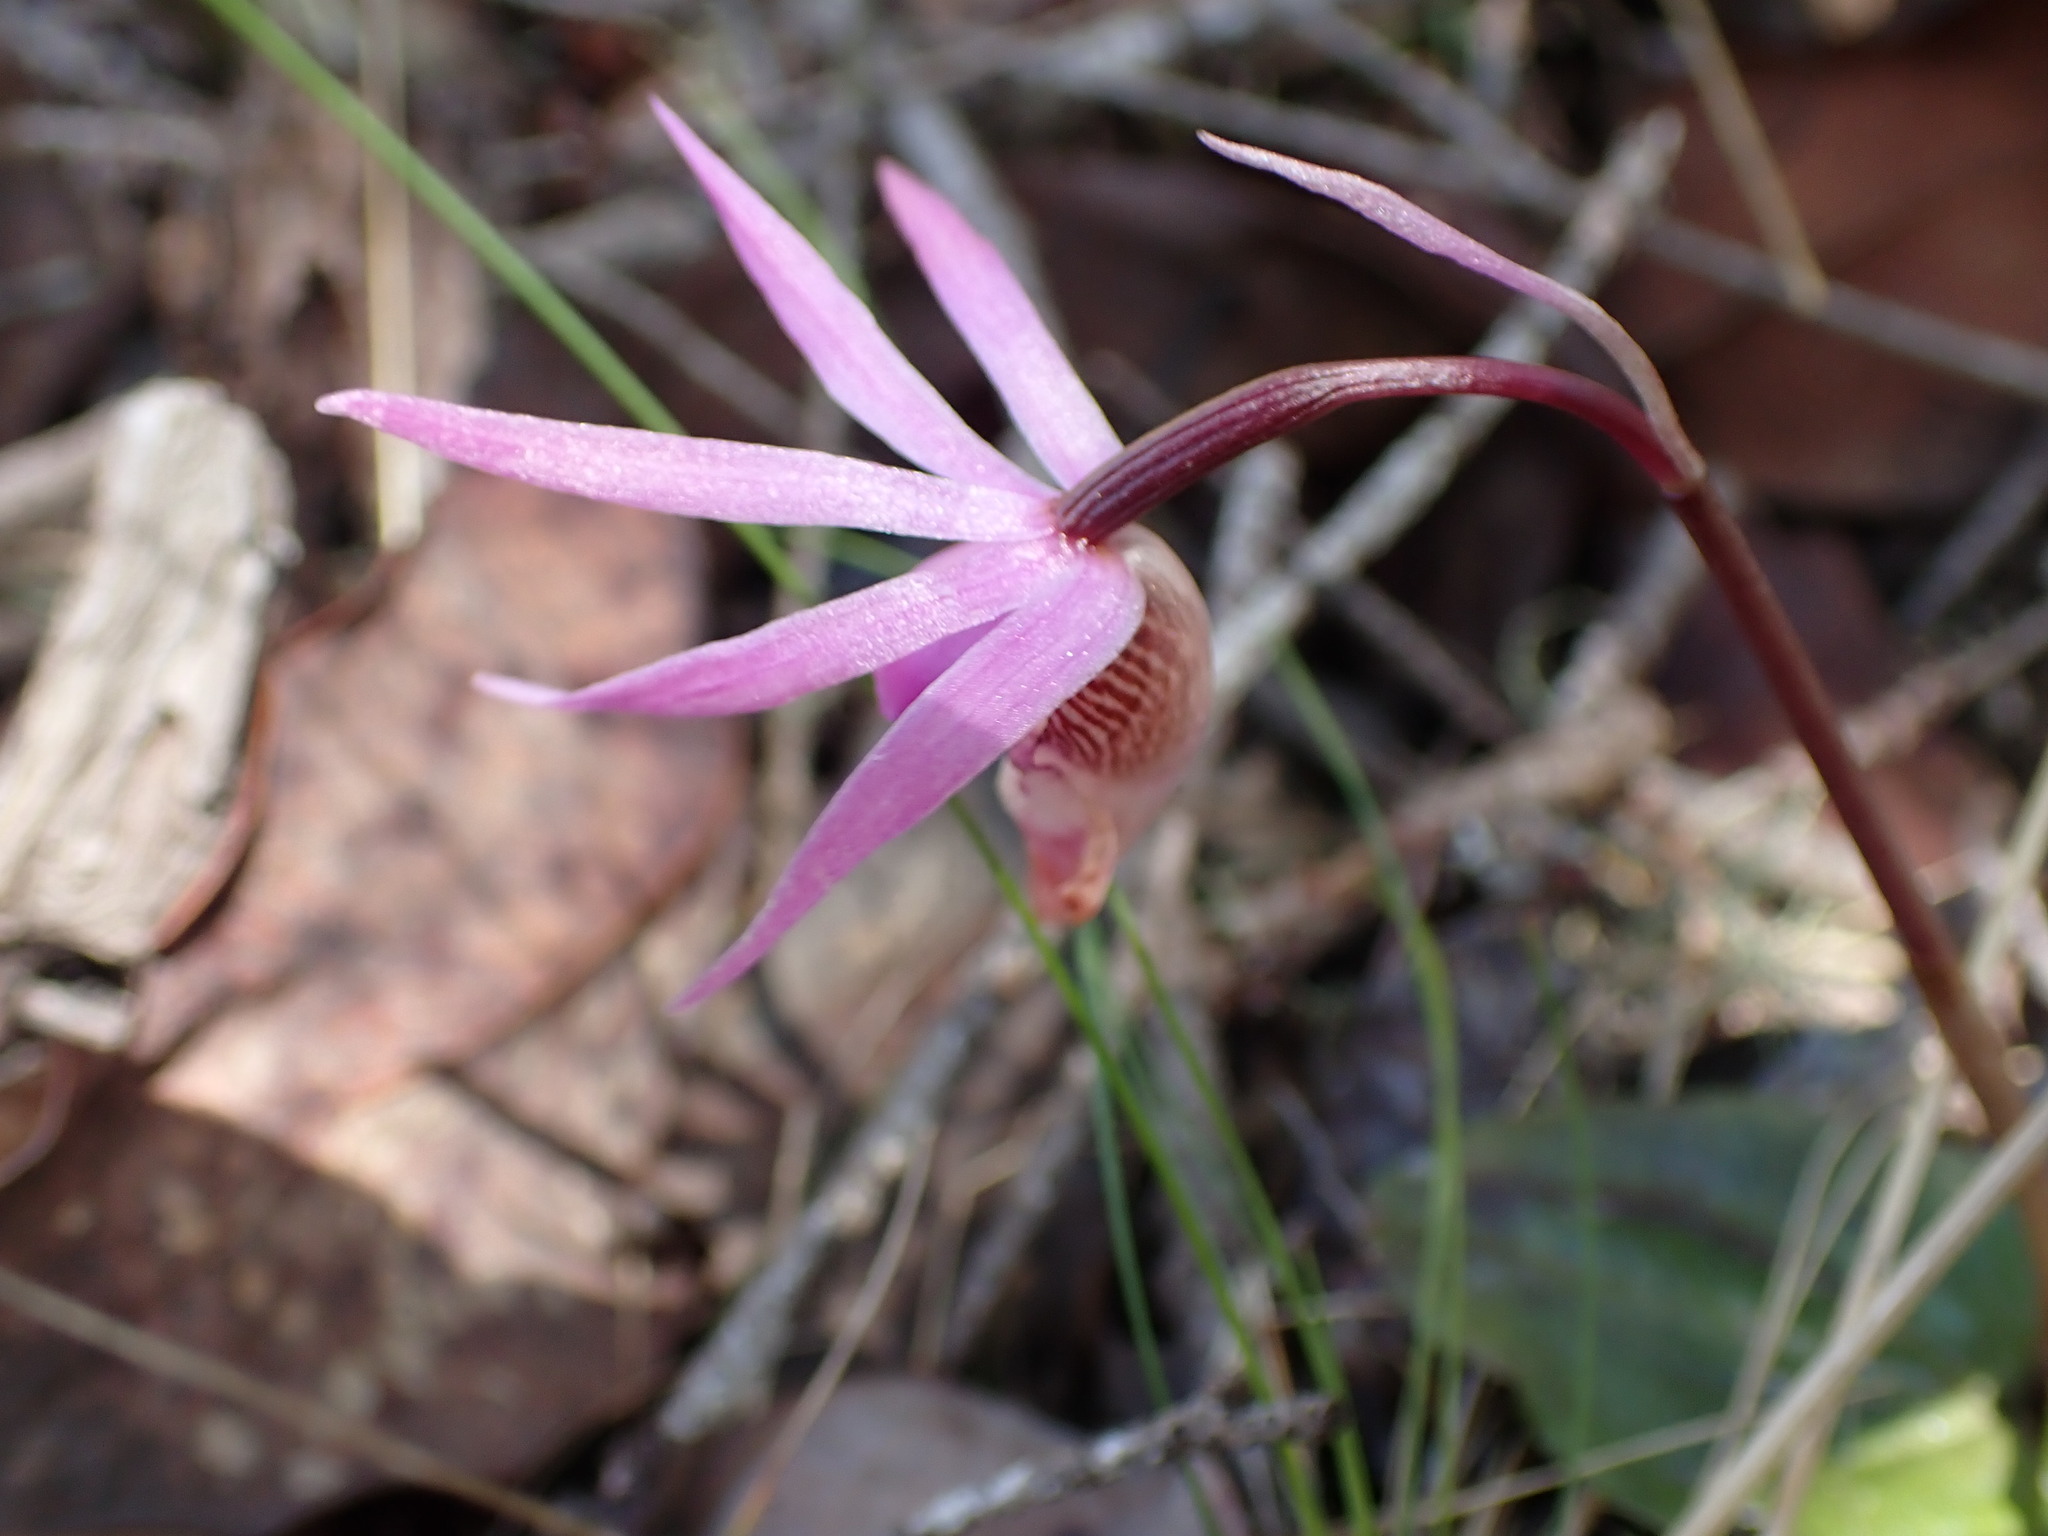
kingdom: Plantae
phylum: Tracheophyta
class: Liliopsida
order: Asparagales
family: Orchidaceae
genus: Calypso
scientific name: Calypso bulbosa
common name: Calypso
